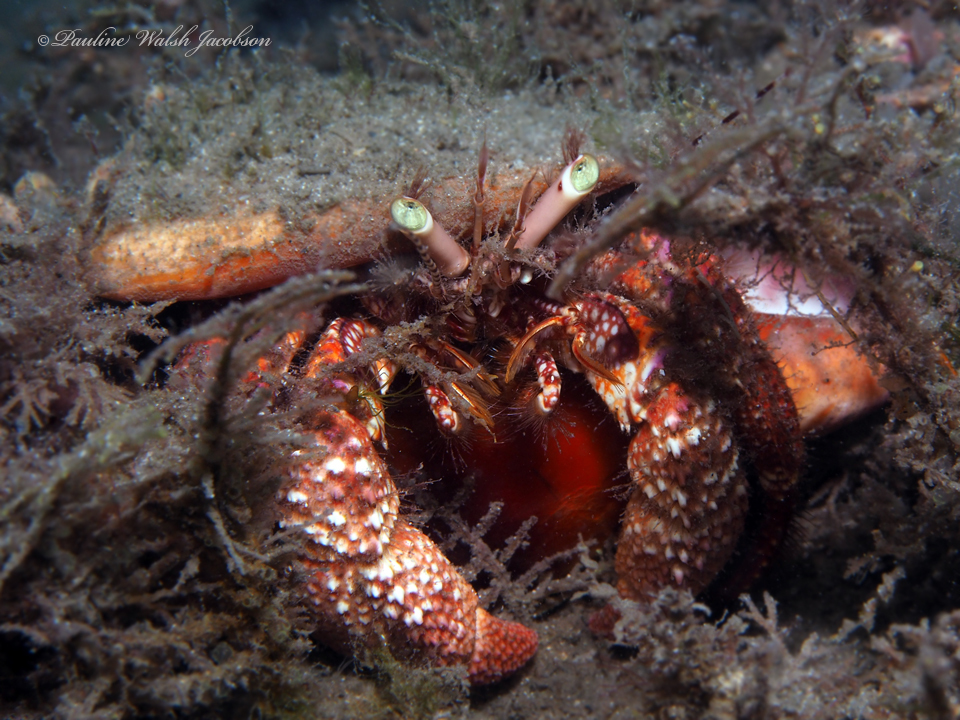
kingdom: Animalia
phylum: Arthropoda
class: Malacostraca
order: Decapoda
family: Diogenidae
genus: Petrochirus
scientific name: Petrochirus diogenes
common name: Giant hermit crab
